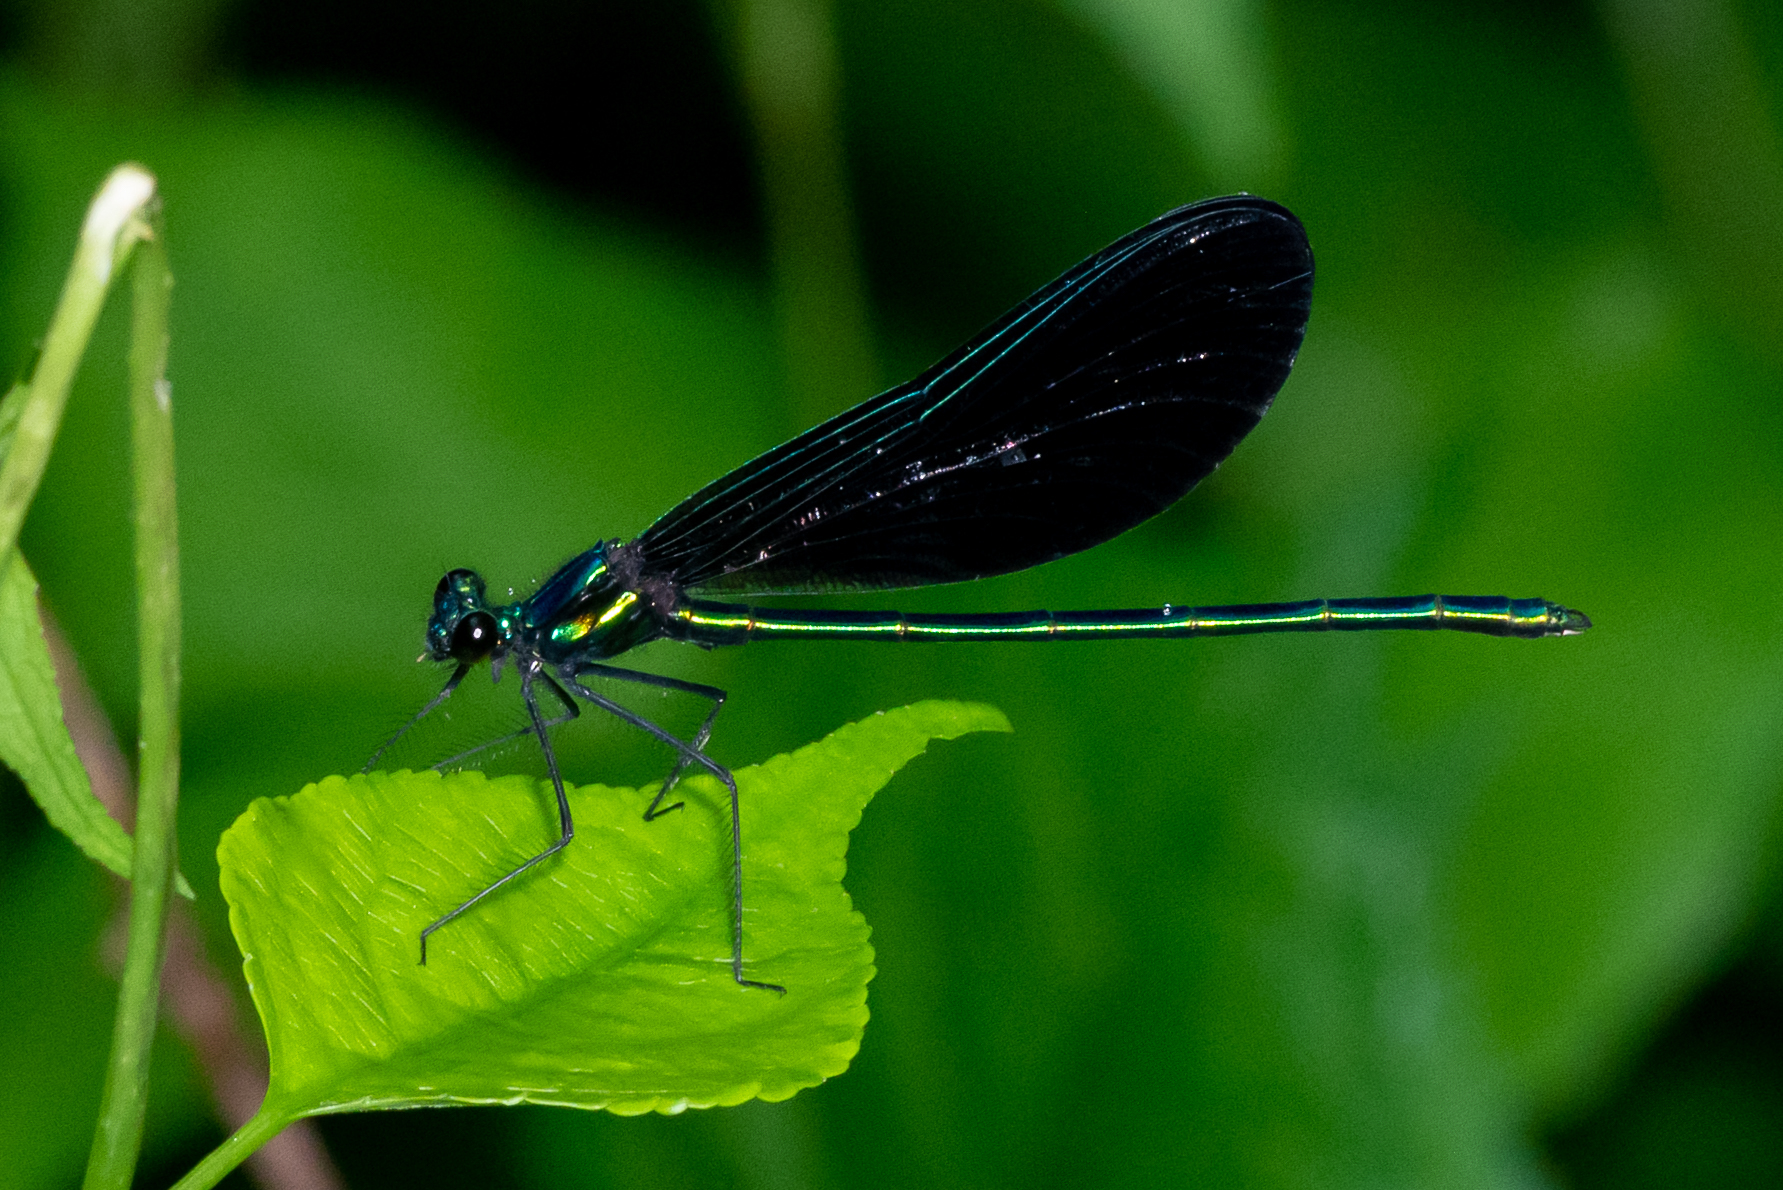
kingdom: Animalia
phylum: Arthropoda
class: Insecta
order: Odonata
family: Calopterygidae
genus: Calopteryx
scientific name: Calopteryx maculata
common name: Ebony jewelwing
